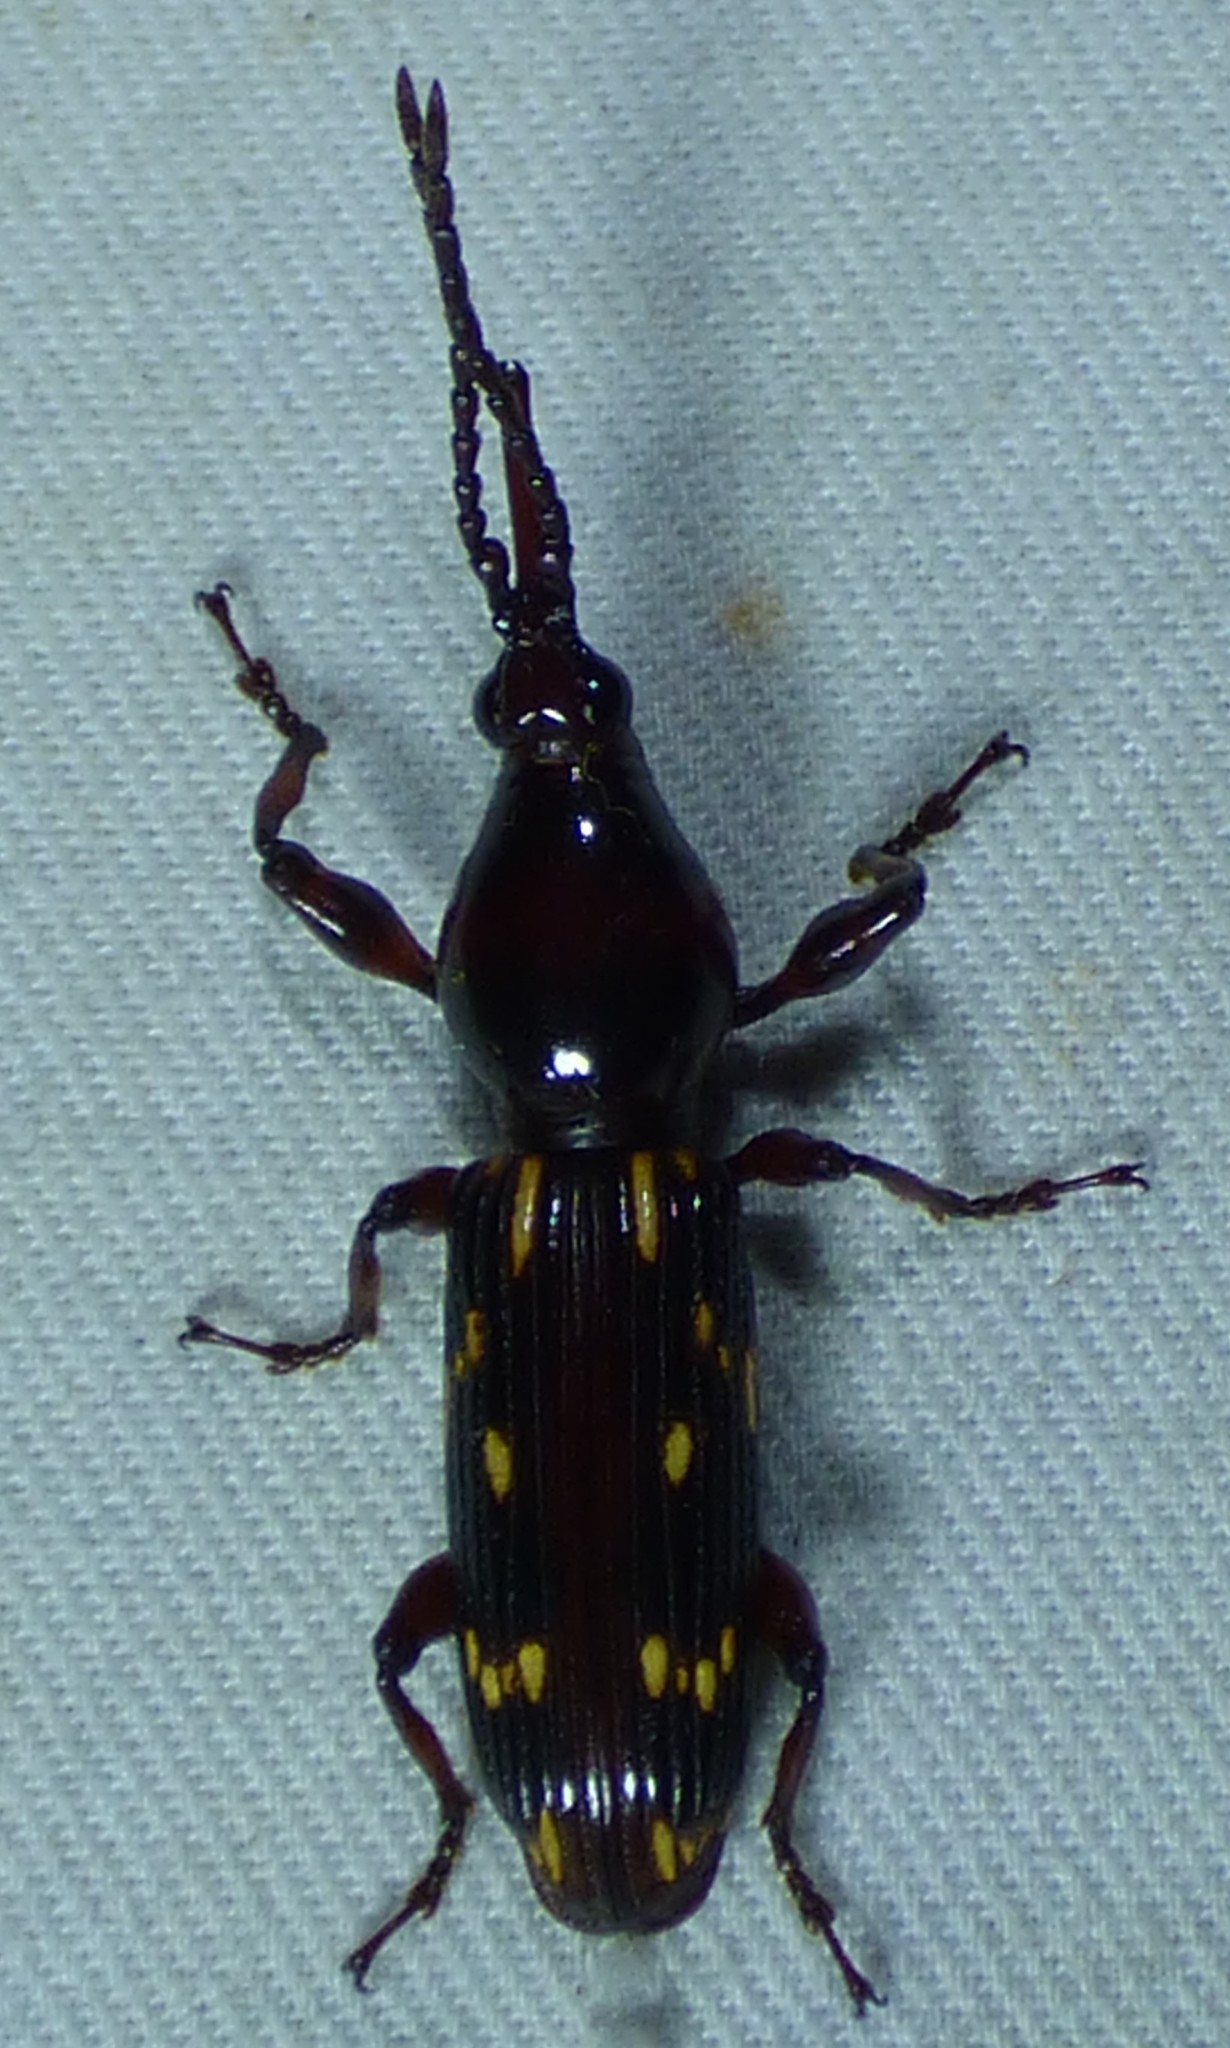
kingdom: Animalia
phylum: Arthropoda
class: Insecta
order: Coleoptera
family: Brentidae
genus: Arrenodes
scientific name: Arrenodes minutus
